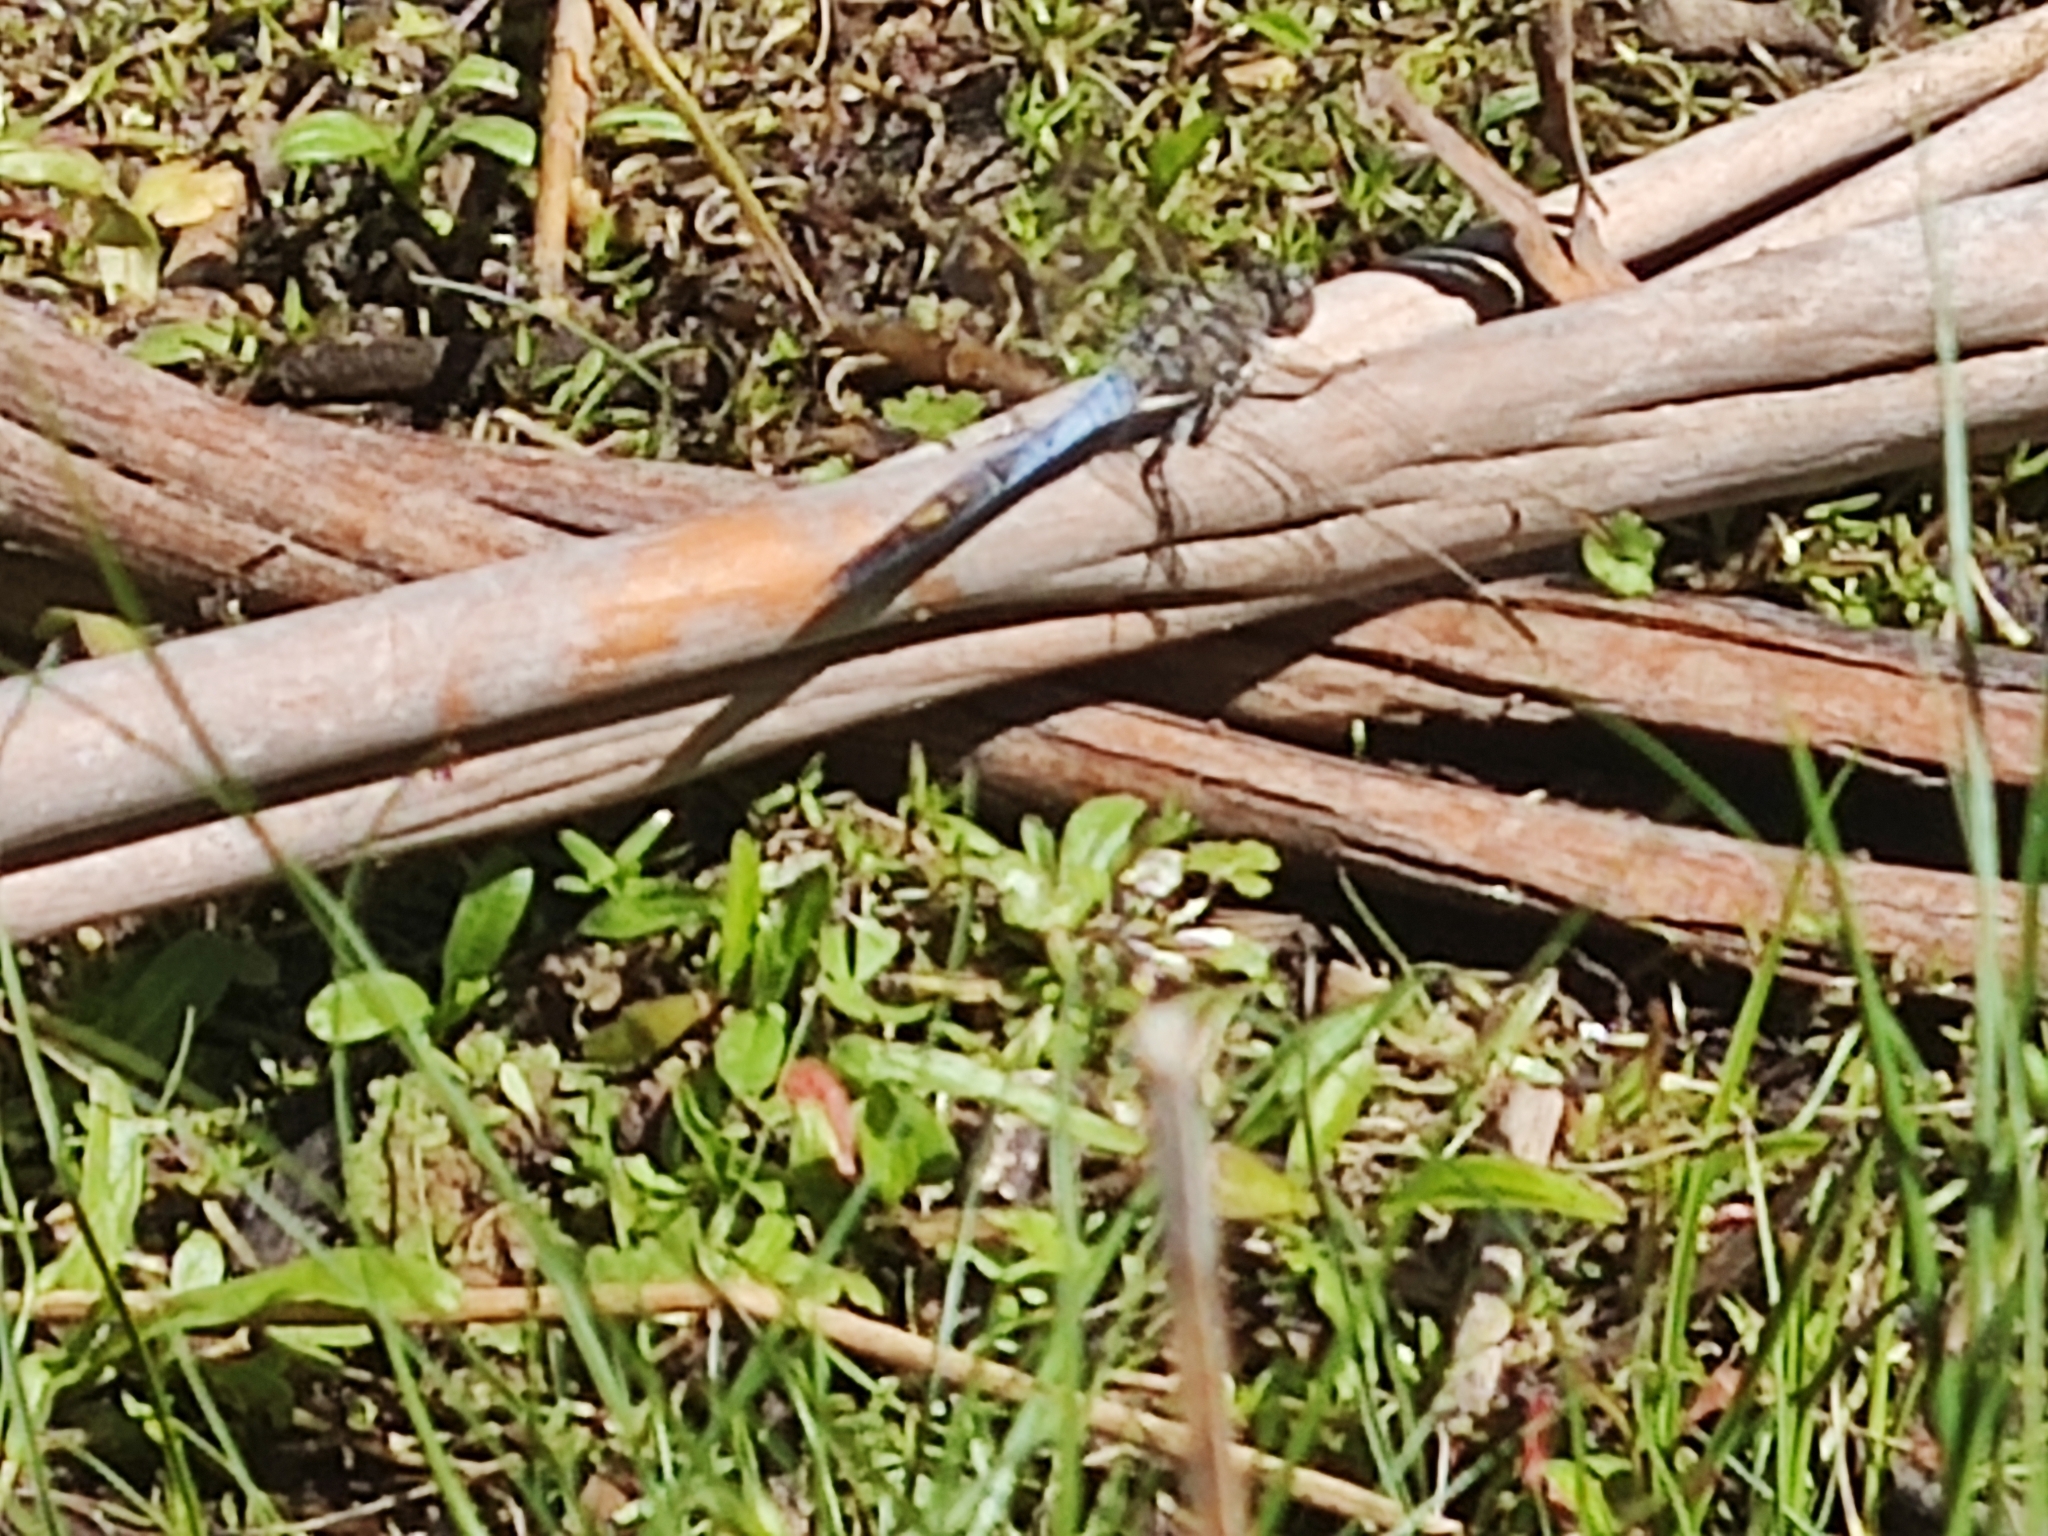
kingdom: Animalia
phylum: Arthropoda
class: Insecta
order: Odonata
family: Libellulidae
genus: Orthetrum
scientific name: Orthetrum caledonicum
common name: Blue skimmer
